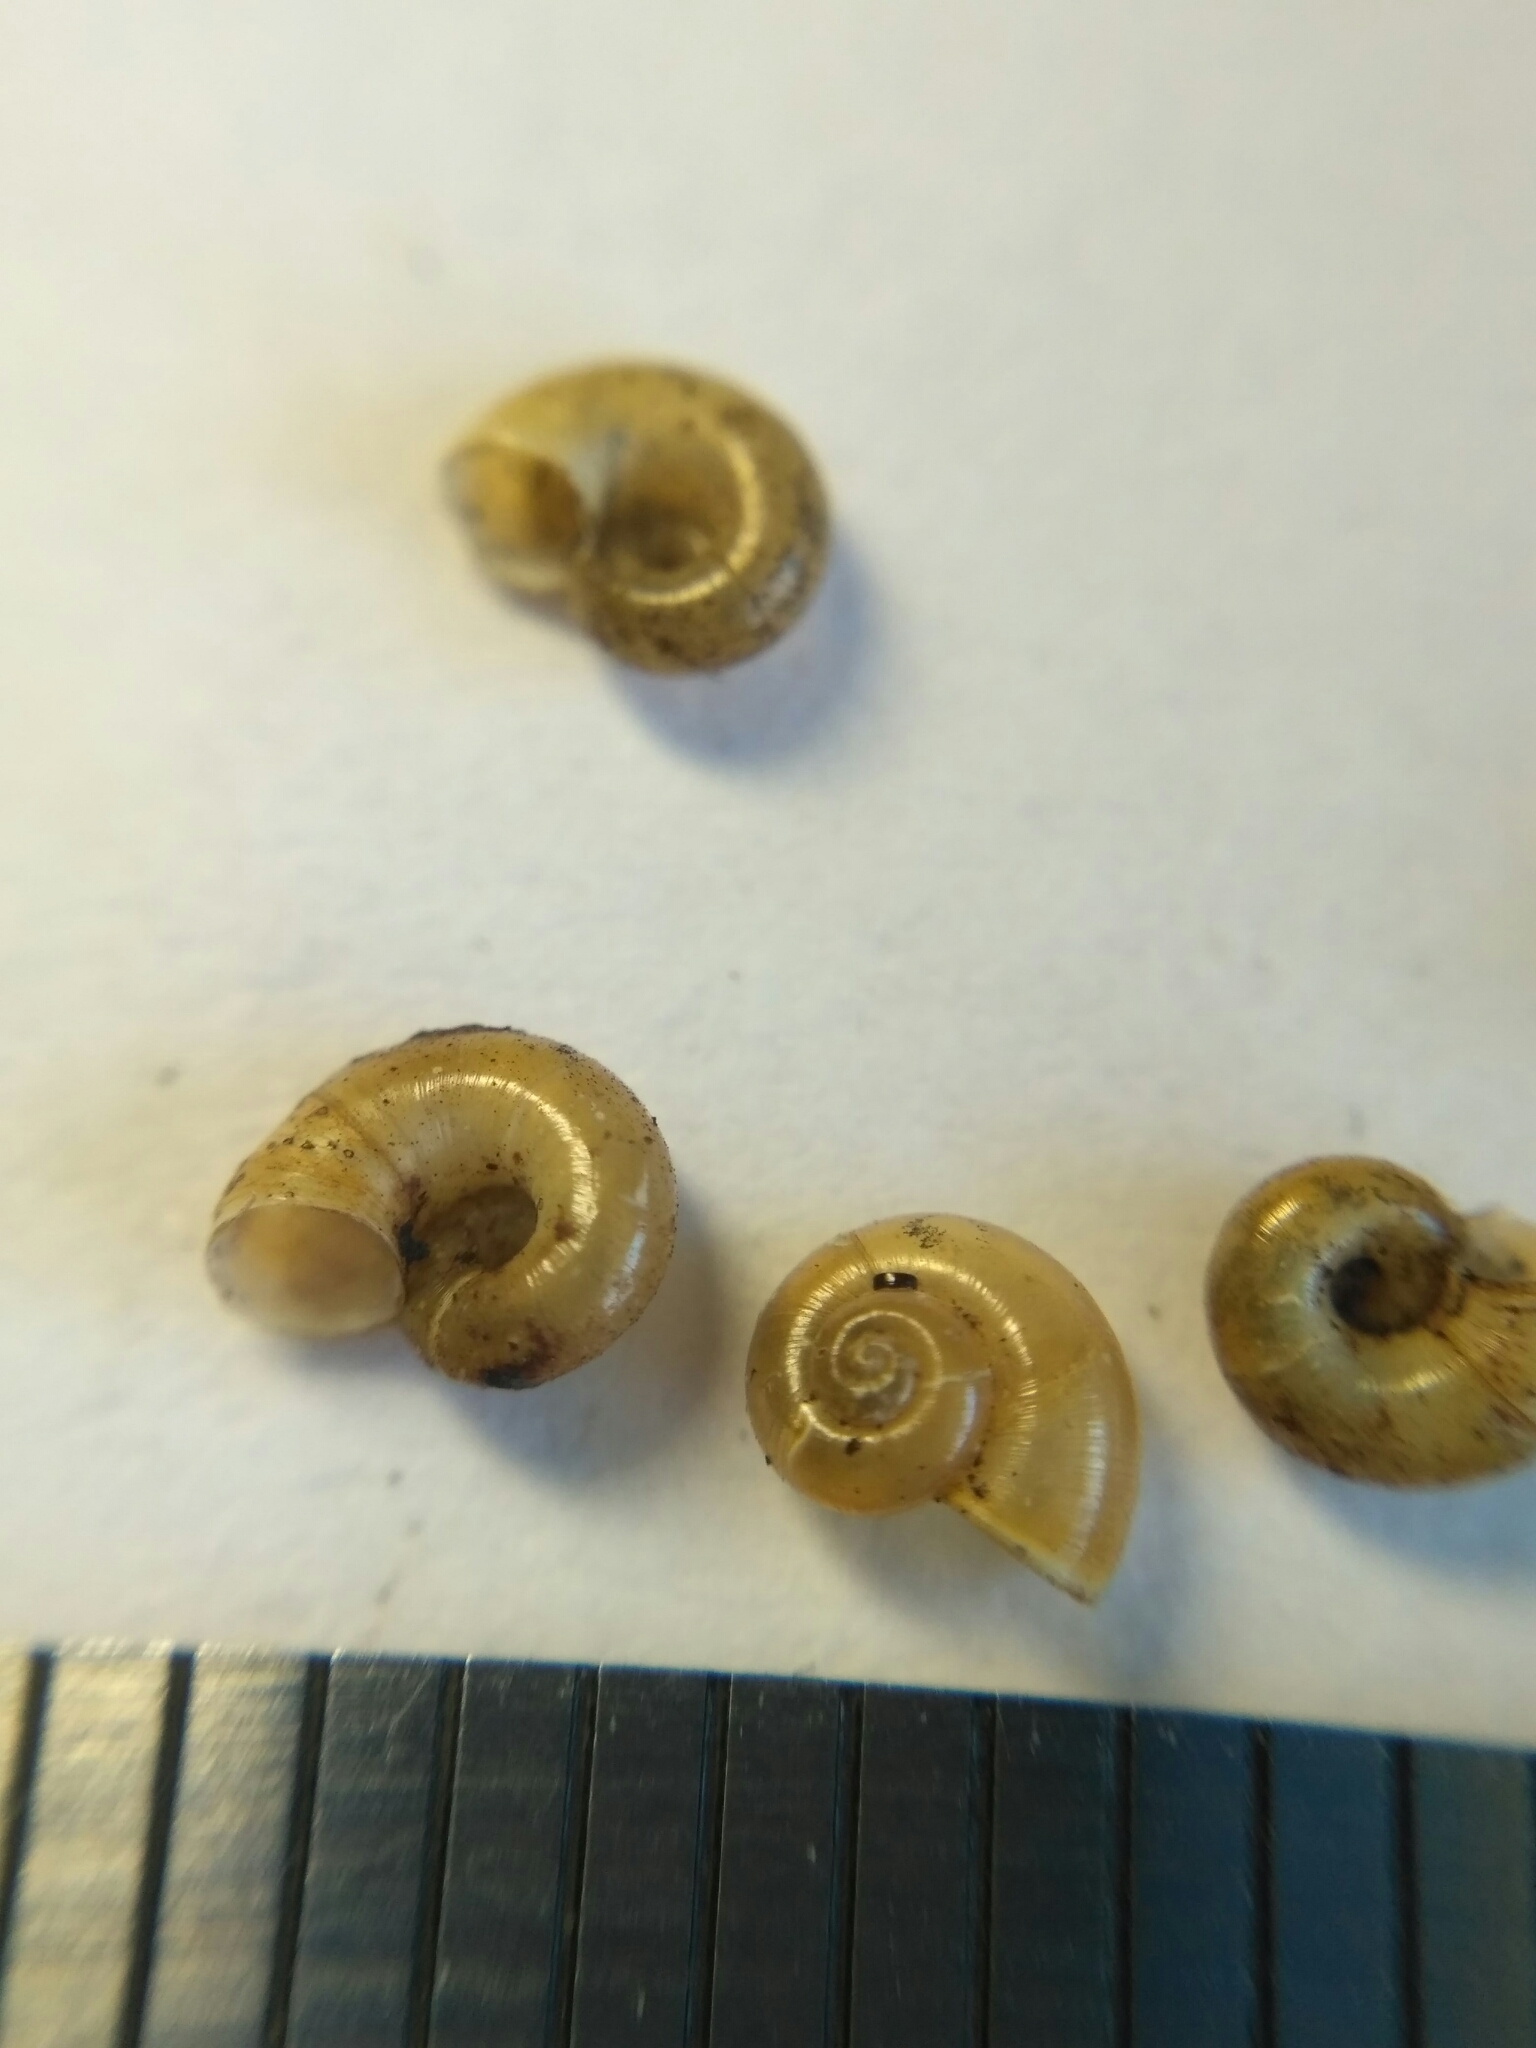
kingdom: Animalia
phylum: Mollusca
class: Gastropoda
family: Valvatidae
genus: Valvata
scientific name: Valvata macrostoma
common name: Large-mouthed valve snail
